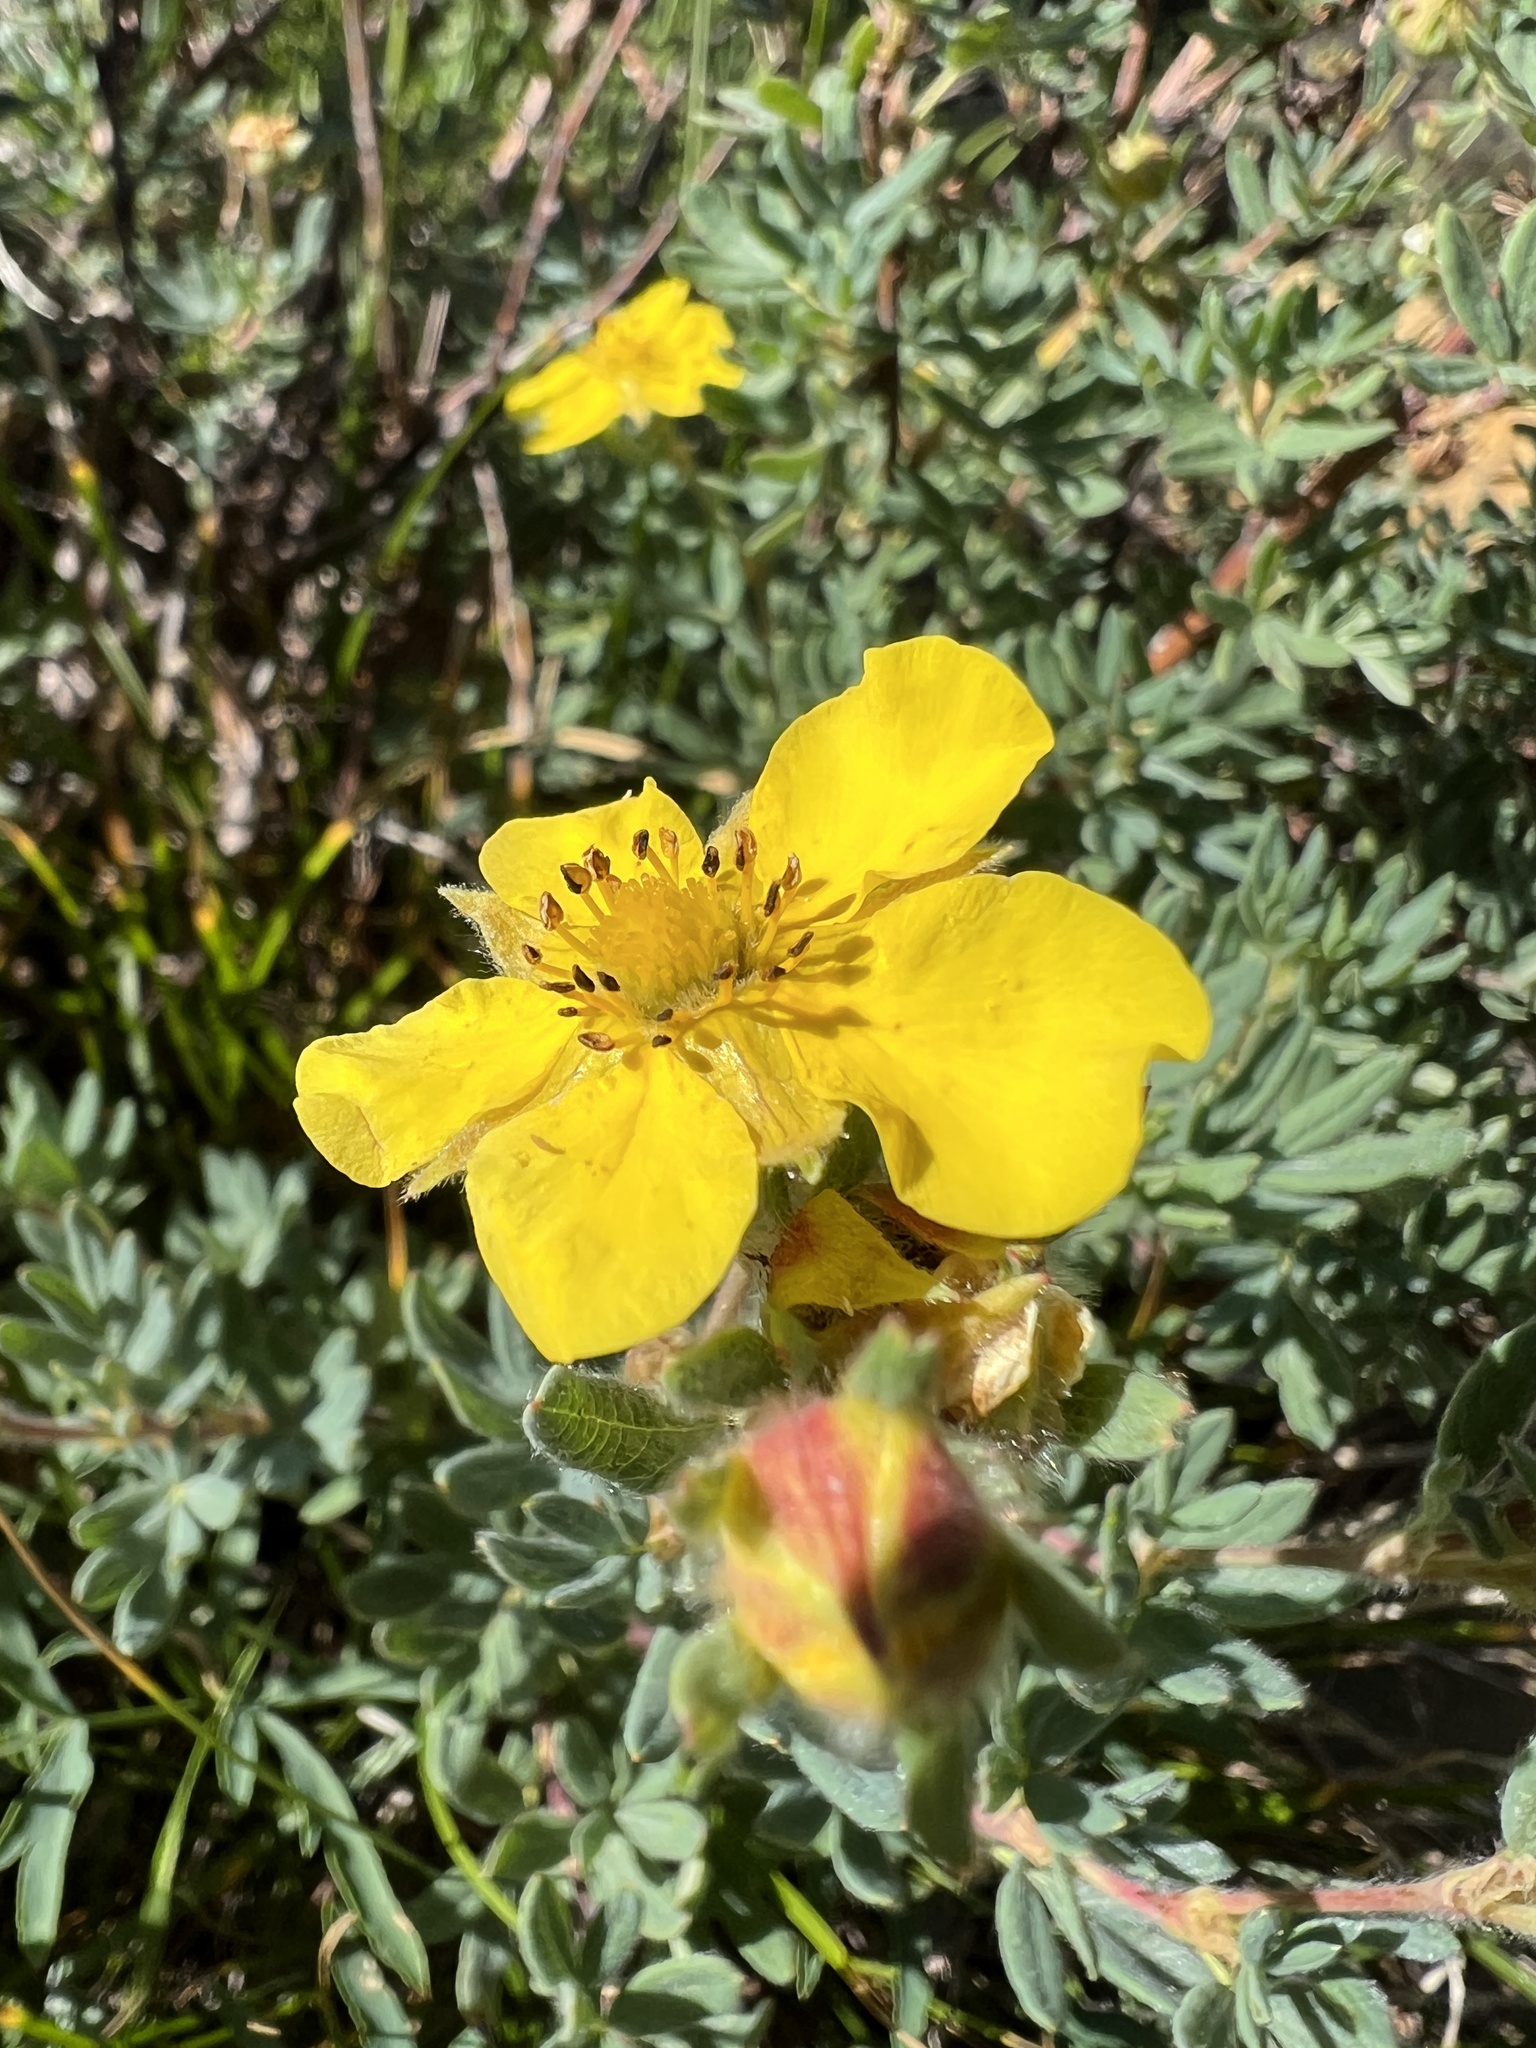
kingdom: Plantae
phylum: Tracheophyta
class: Magnoliopsida
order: Rosales
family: Rosaceae
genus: Dasiphora
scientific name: Dasiphora fruticosa
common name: Shrubby cinquefoil
